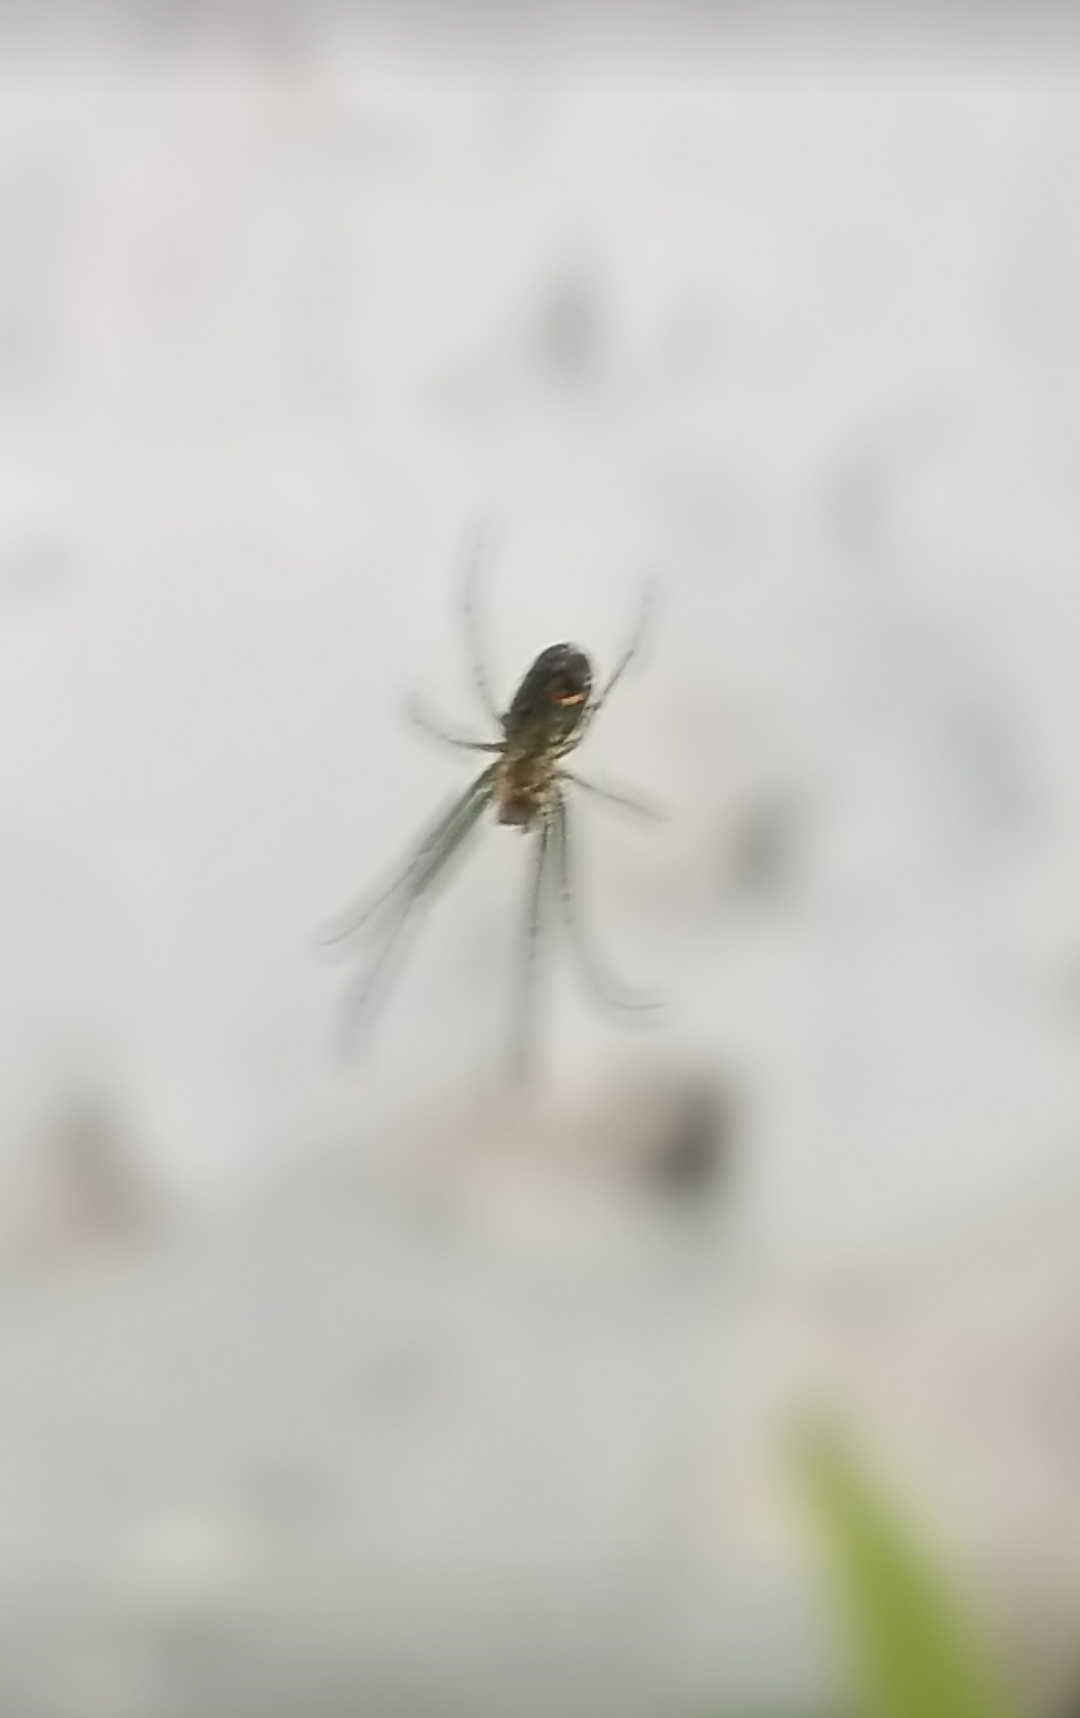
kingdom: Animalia
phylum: Arthropoda
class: Arachnida
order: Araneae
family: Tetragnathidae
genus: Leucauge
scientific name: Leucauge venusta
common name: Longjawed orb weavers
